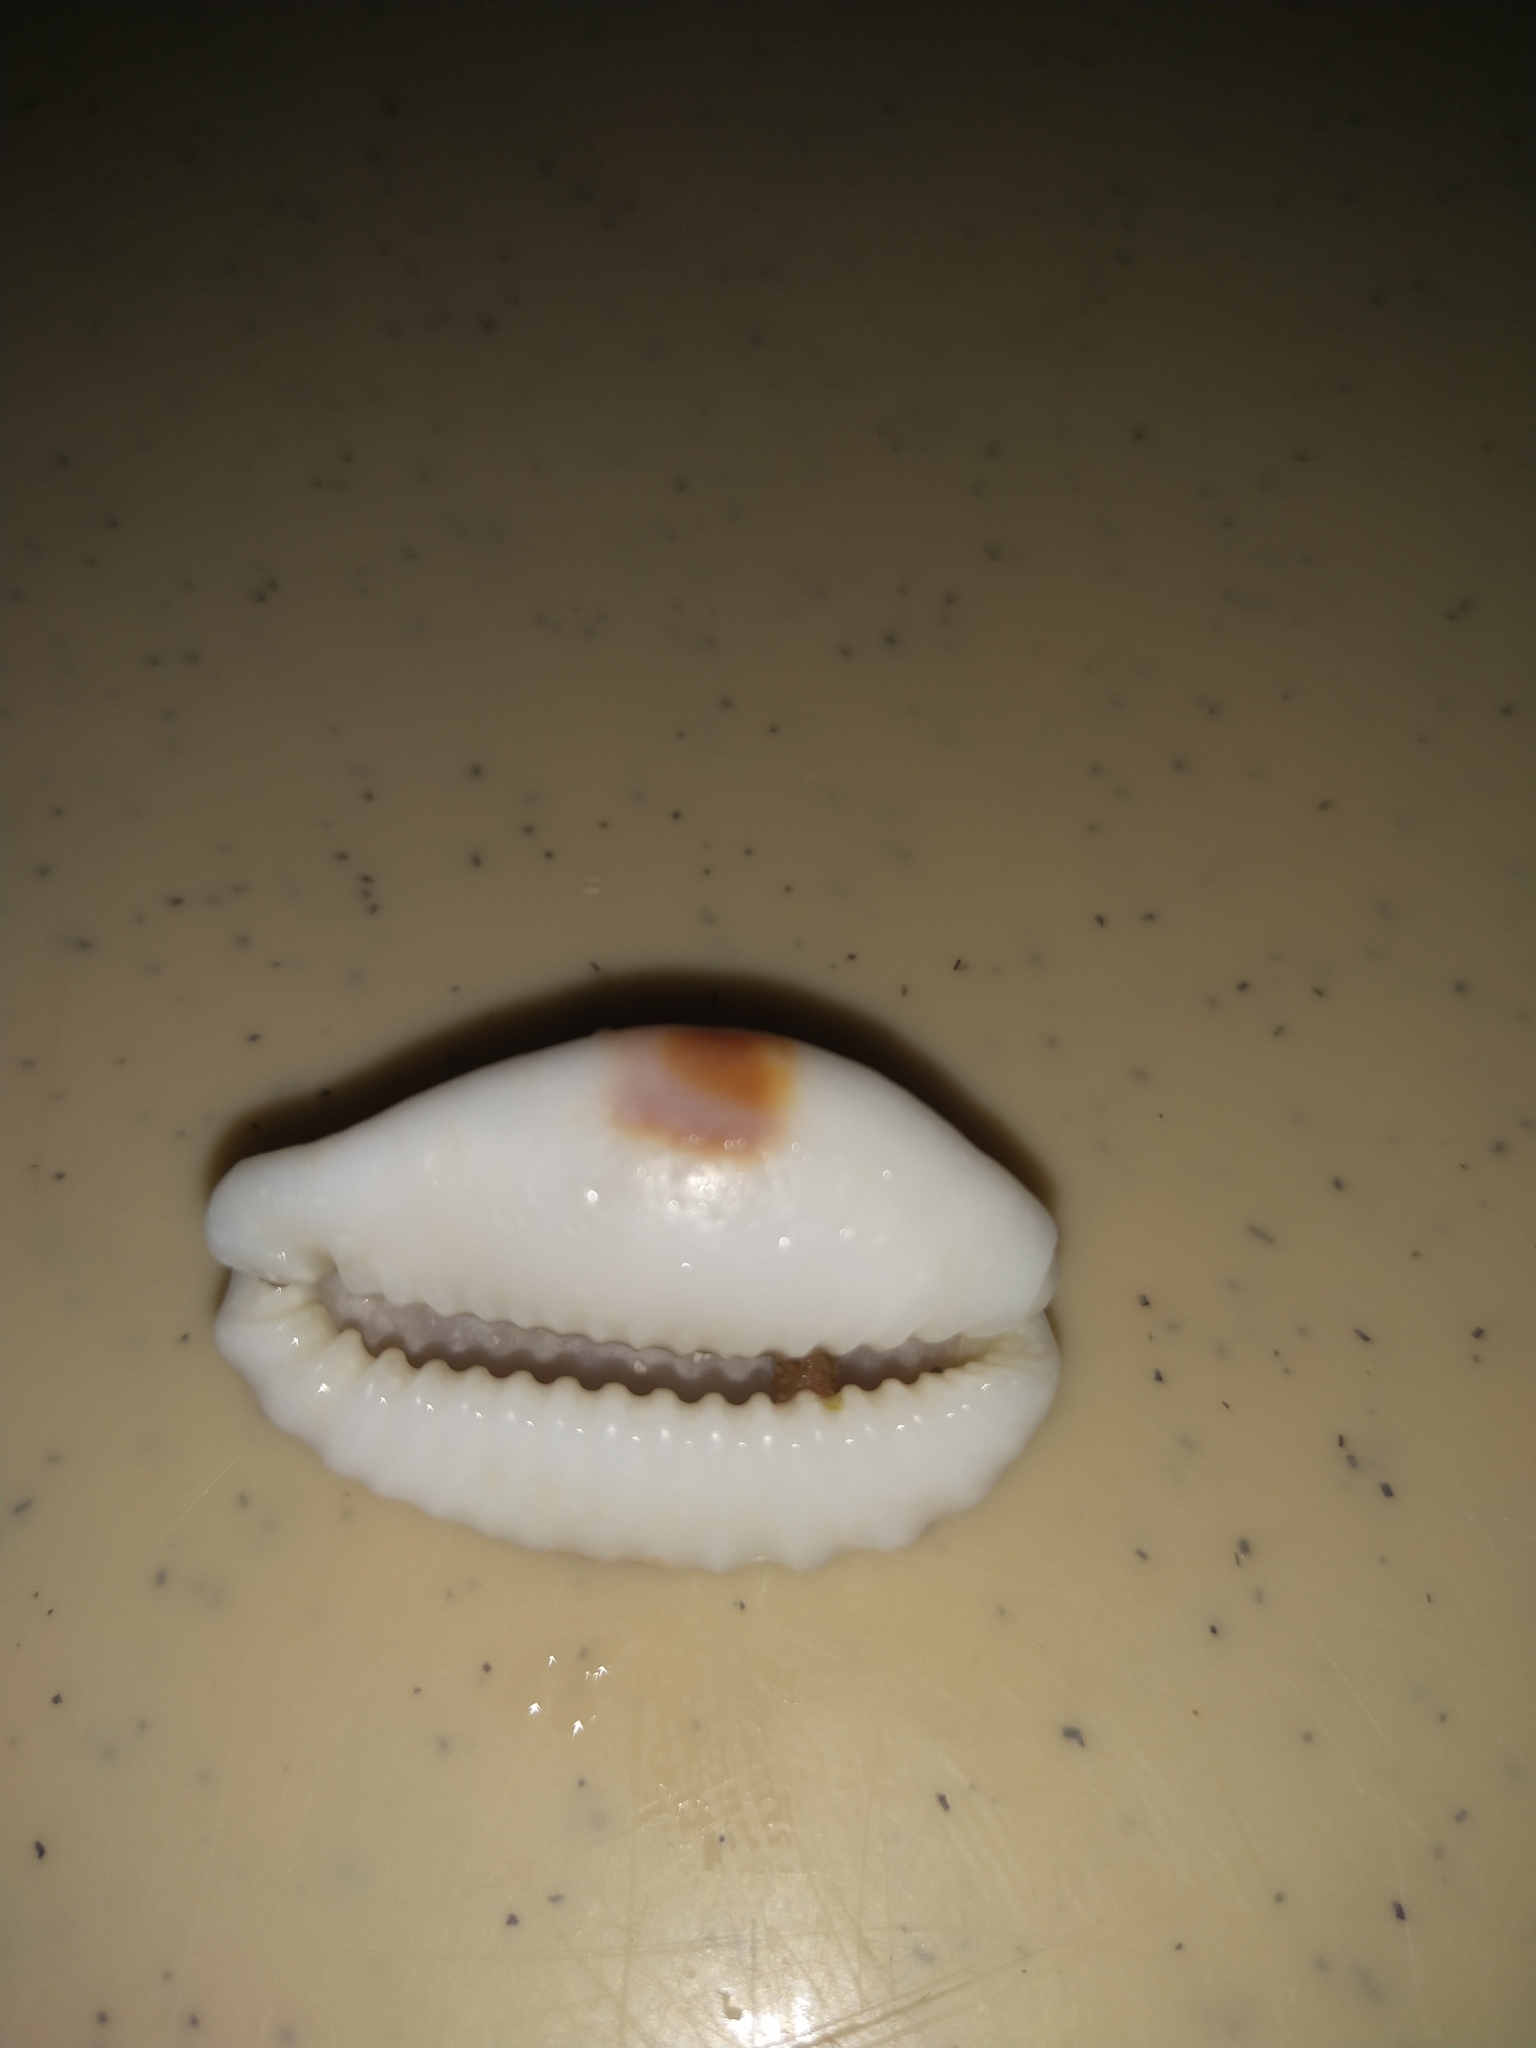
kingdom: Animalia
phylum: Mollusca
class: Gastropoda
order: Littorinimorpha
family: Cypraeidae
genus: Naria
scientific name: Naria erosa
